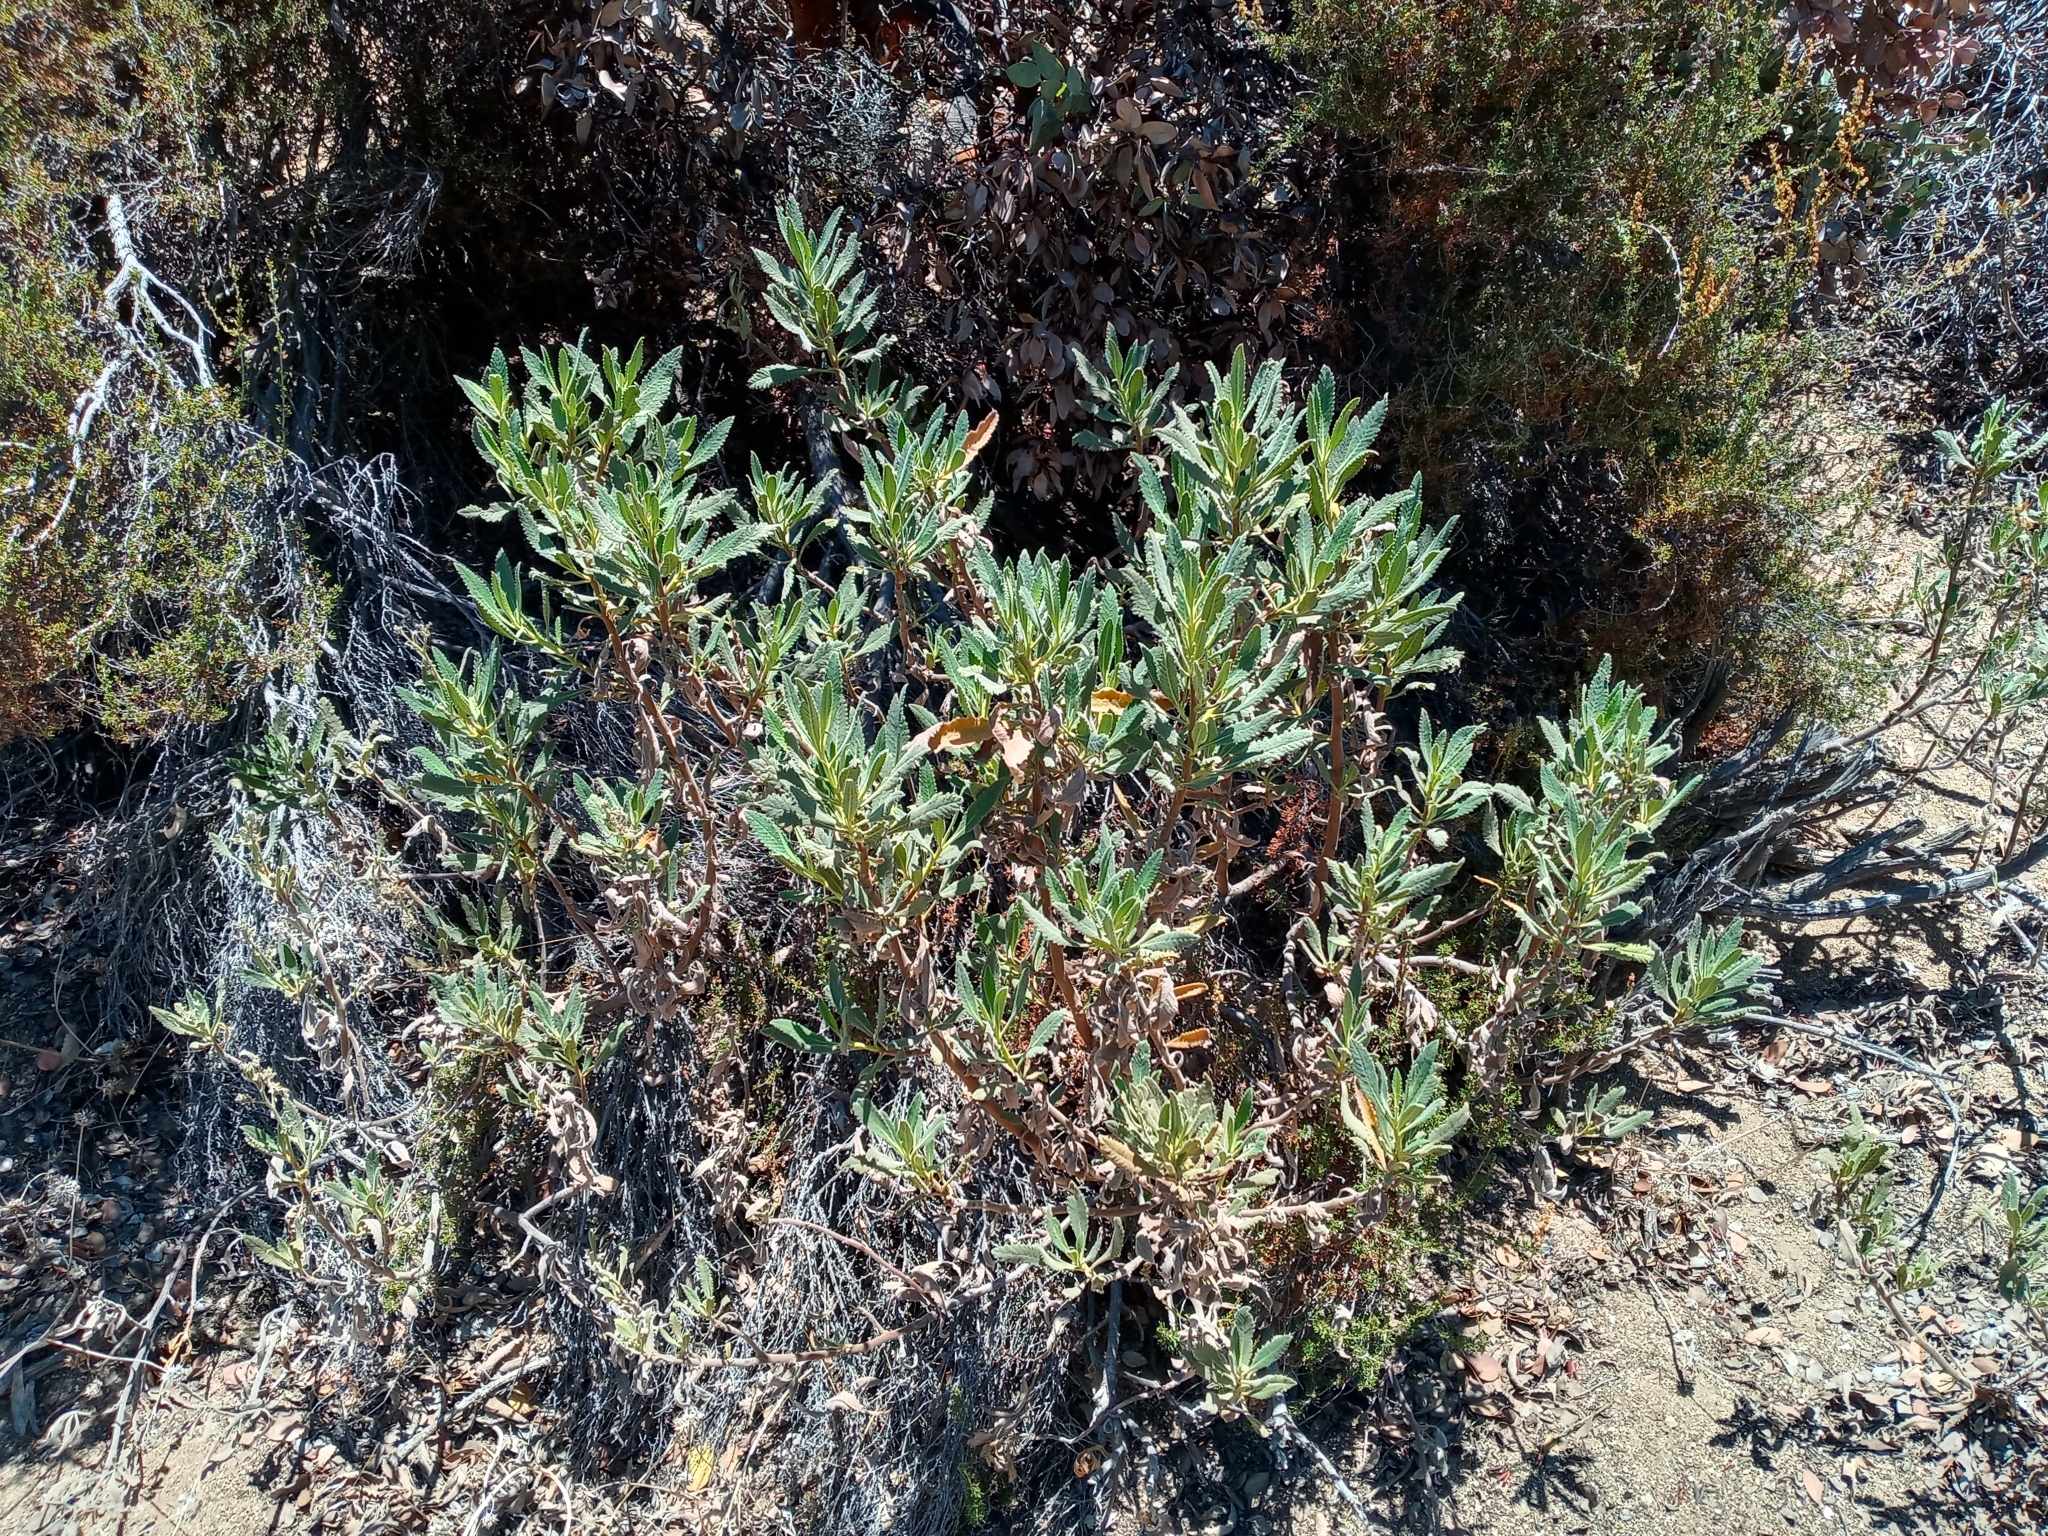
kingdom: Plantae
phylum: Tracheophyta
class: Magnoliopsida
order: Boraginales
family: Namaceae
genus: Eriodictyon
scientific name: Eriodictyon crassifolium
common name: Thick-leaf yerba-santa
